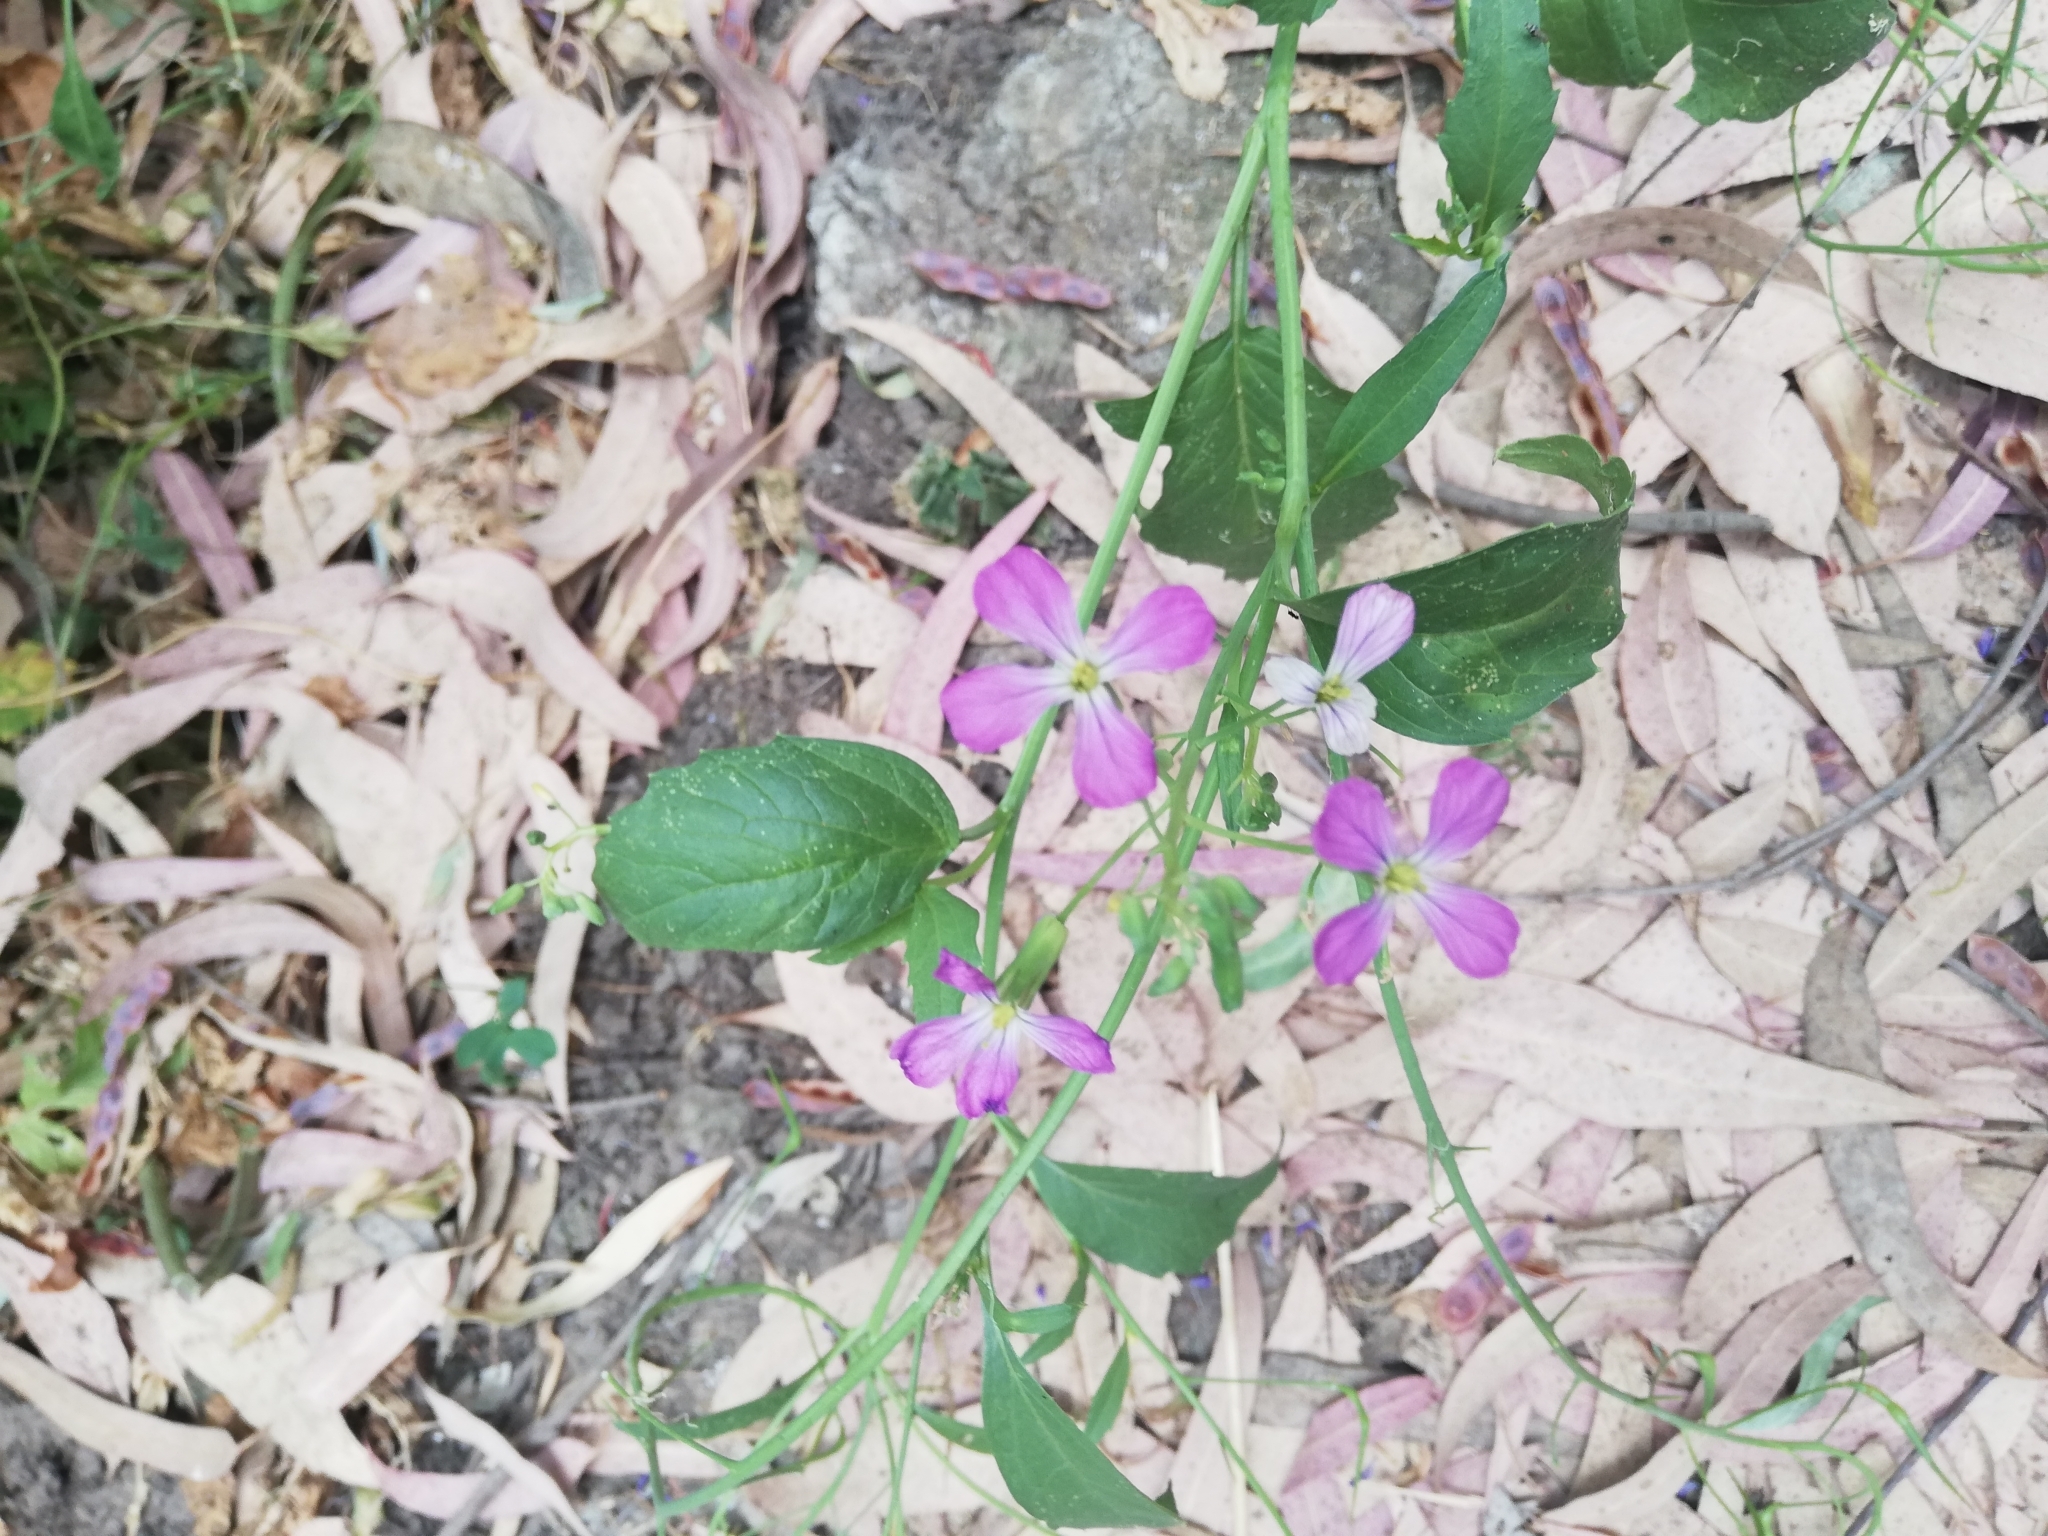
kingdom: Plantae
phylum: Tracheophyta
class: Magnoliopsida
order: Brassicales
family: Brassicaceae
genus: Raphanus
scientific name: Raphanus sativus
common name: Cultivated radish
